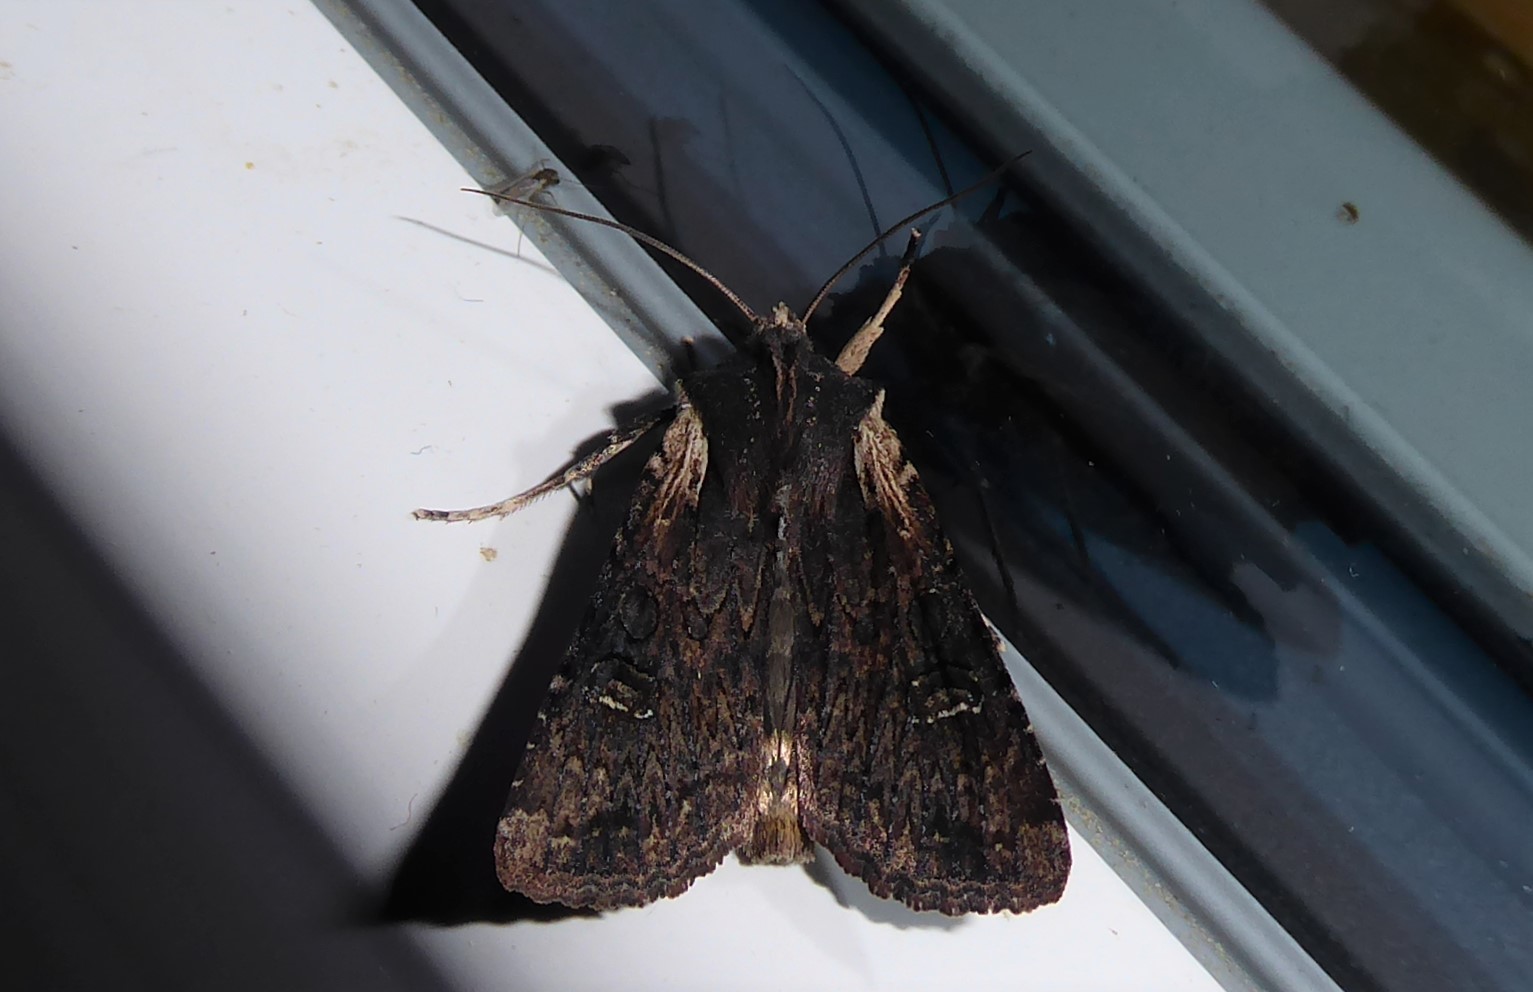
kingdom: Animalia
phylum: Arthropoda
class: Insecta
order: Lepidoptera
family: Noctuidae
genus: Ichneutica
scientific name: Ichneutica omoplaca
